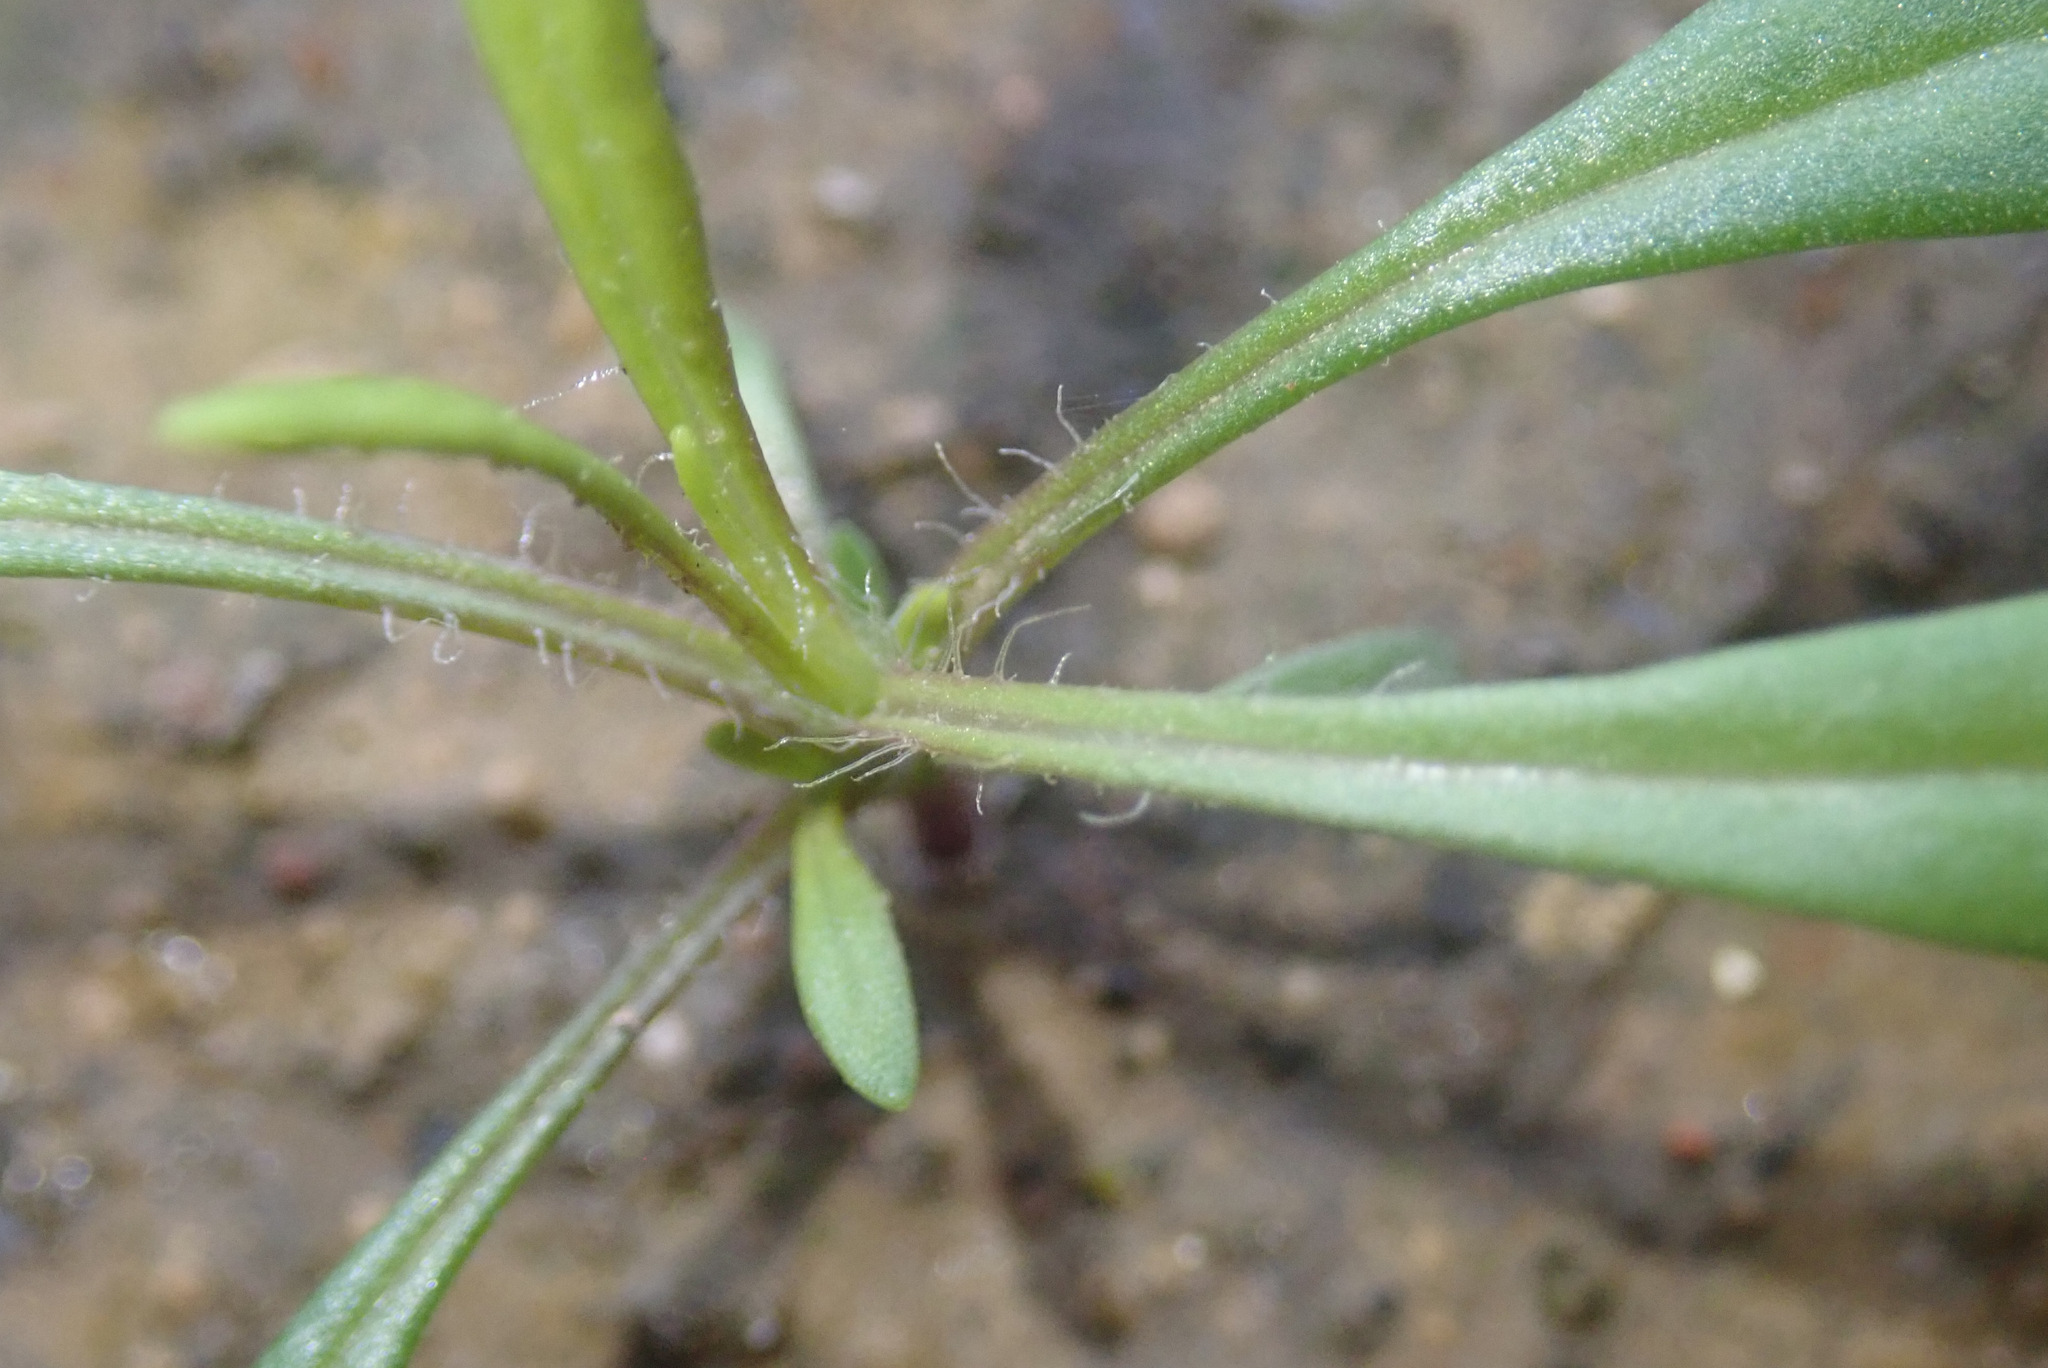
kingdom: Plantae
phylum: Tracheophyta
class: Magnoliopsida
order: Asterales
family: Asteraceae
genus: Senecio
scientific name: Senecio inaequidens
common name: Narrow-leaved ragwort
